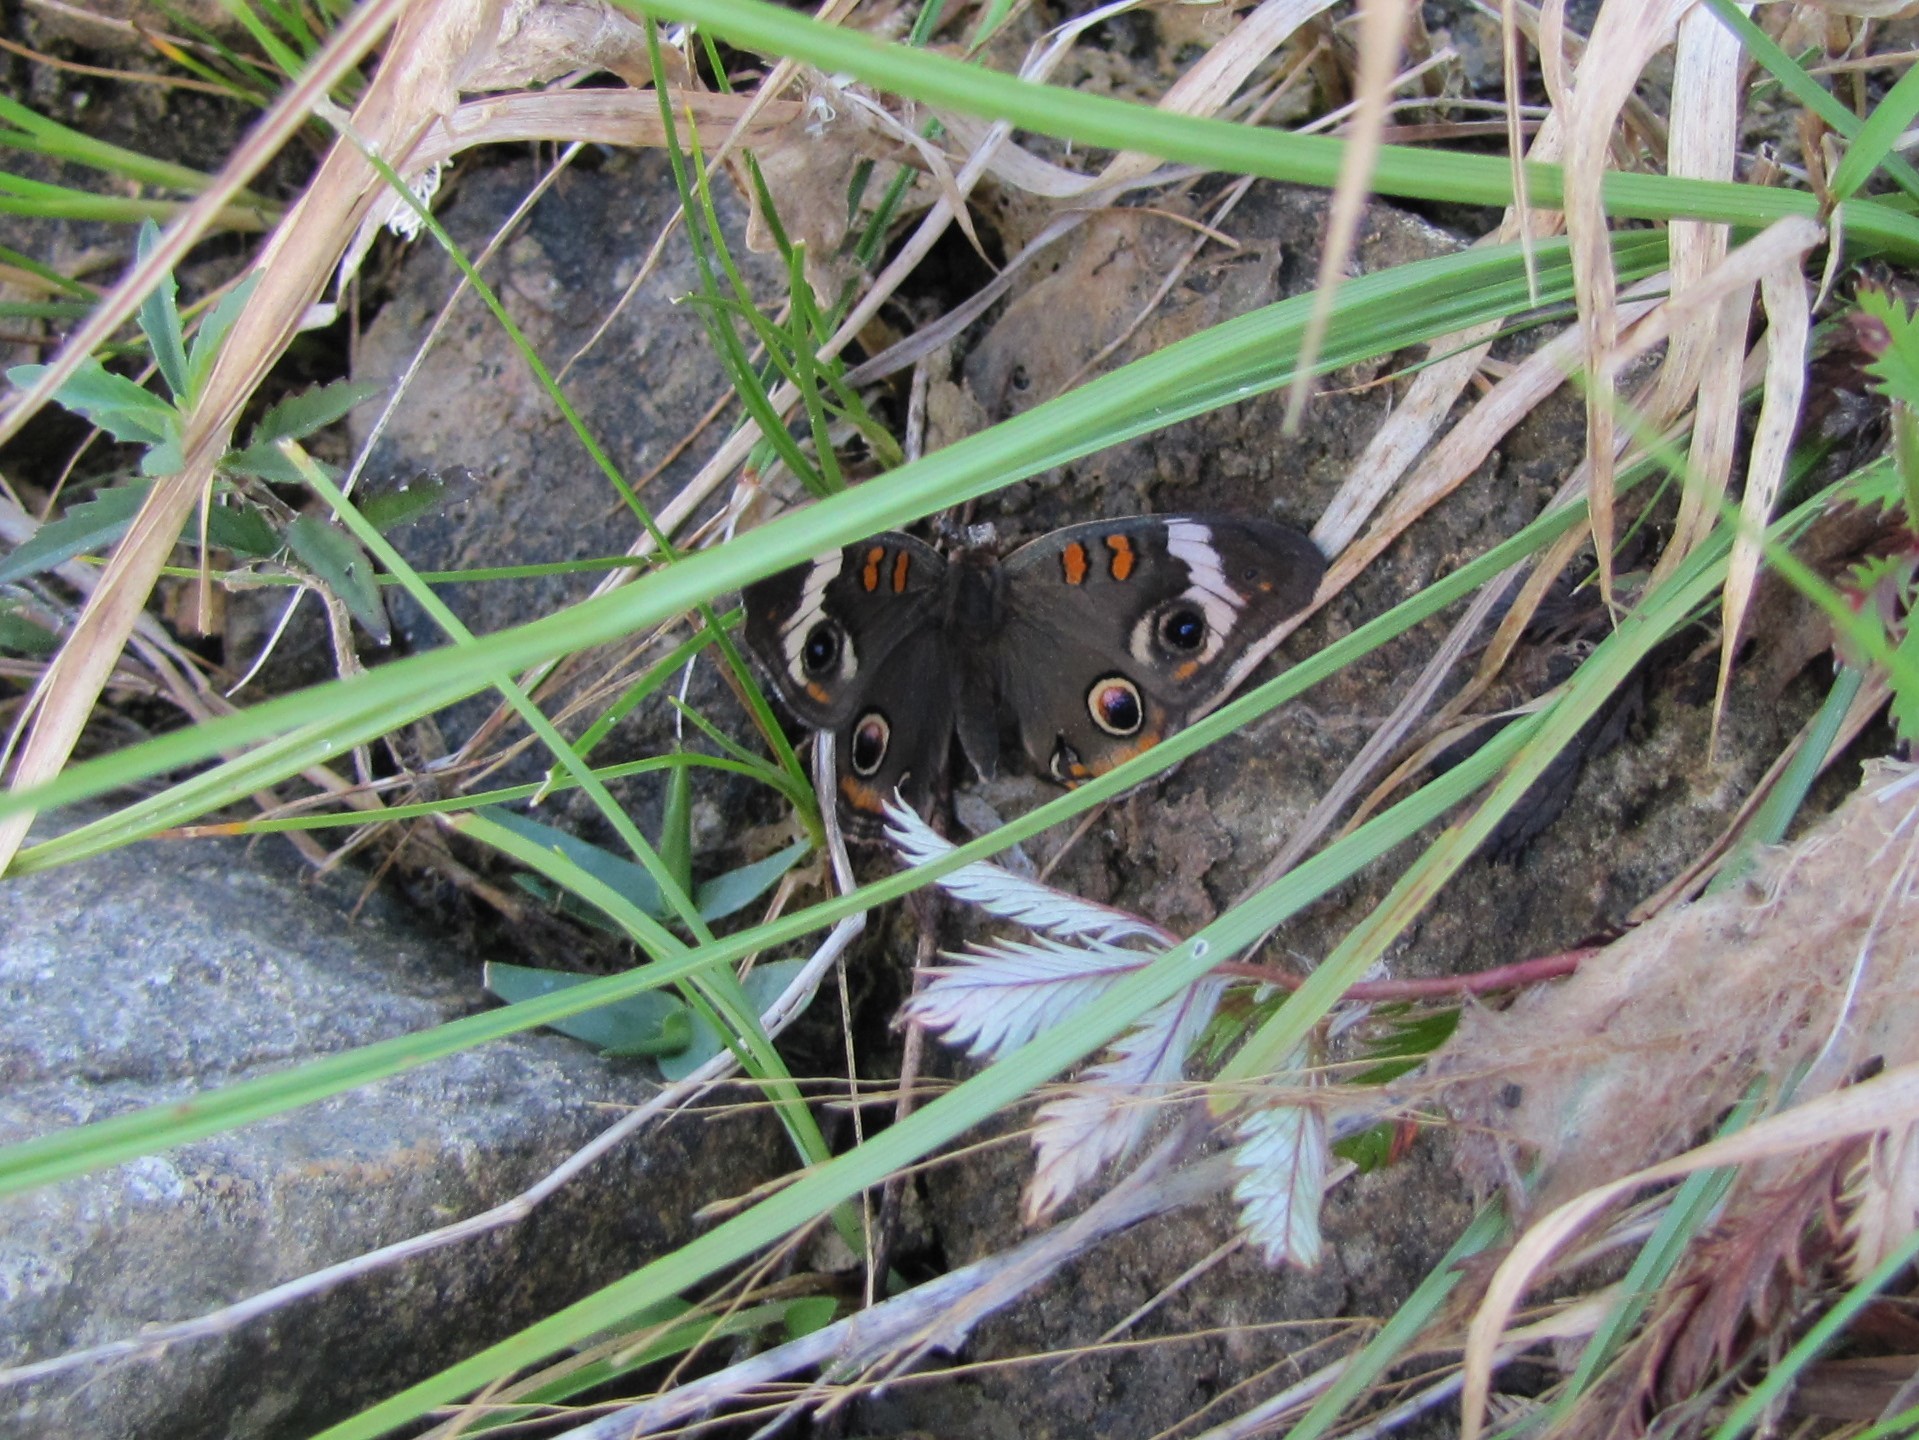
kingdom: Animalia
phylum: Arthropoda
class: Insecta
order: Lepidoptera
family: Nymphalidae
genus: Junonia
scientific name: Junonia coenia
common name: Common buckeye
